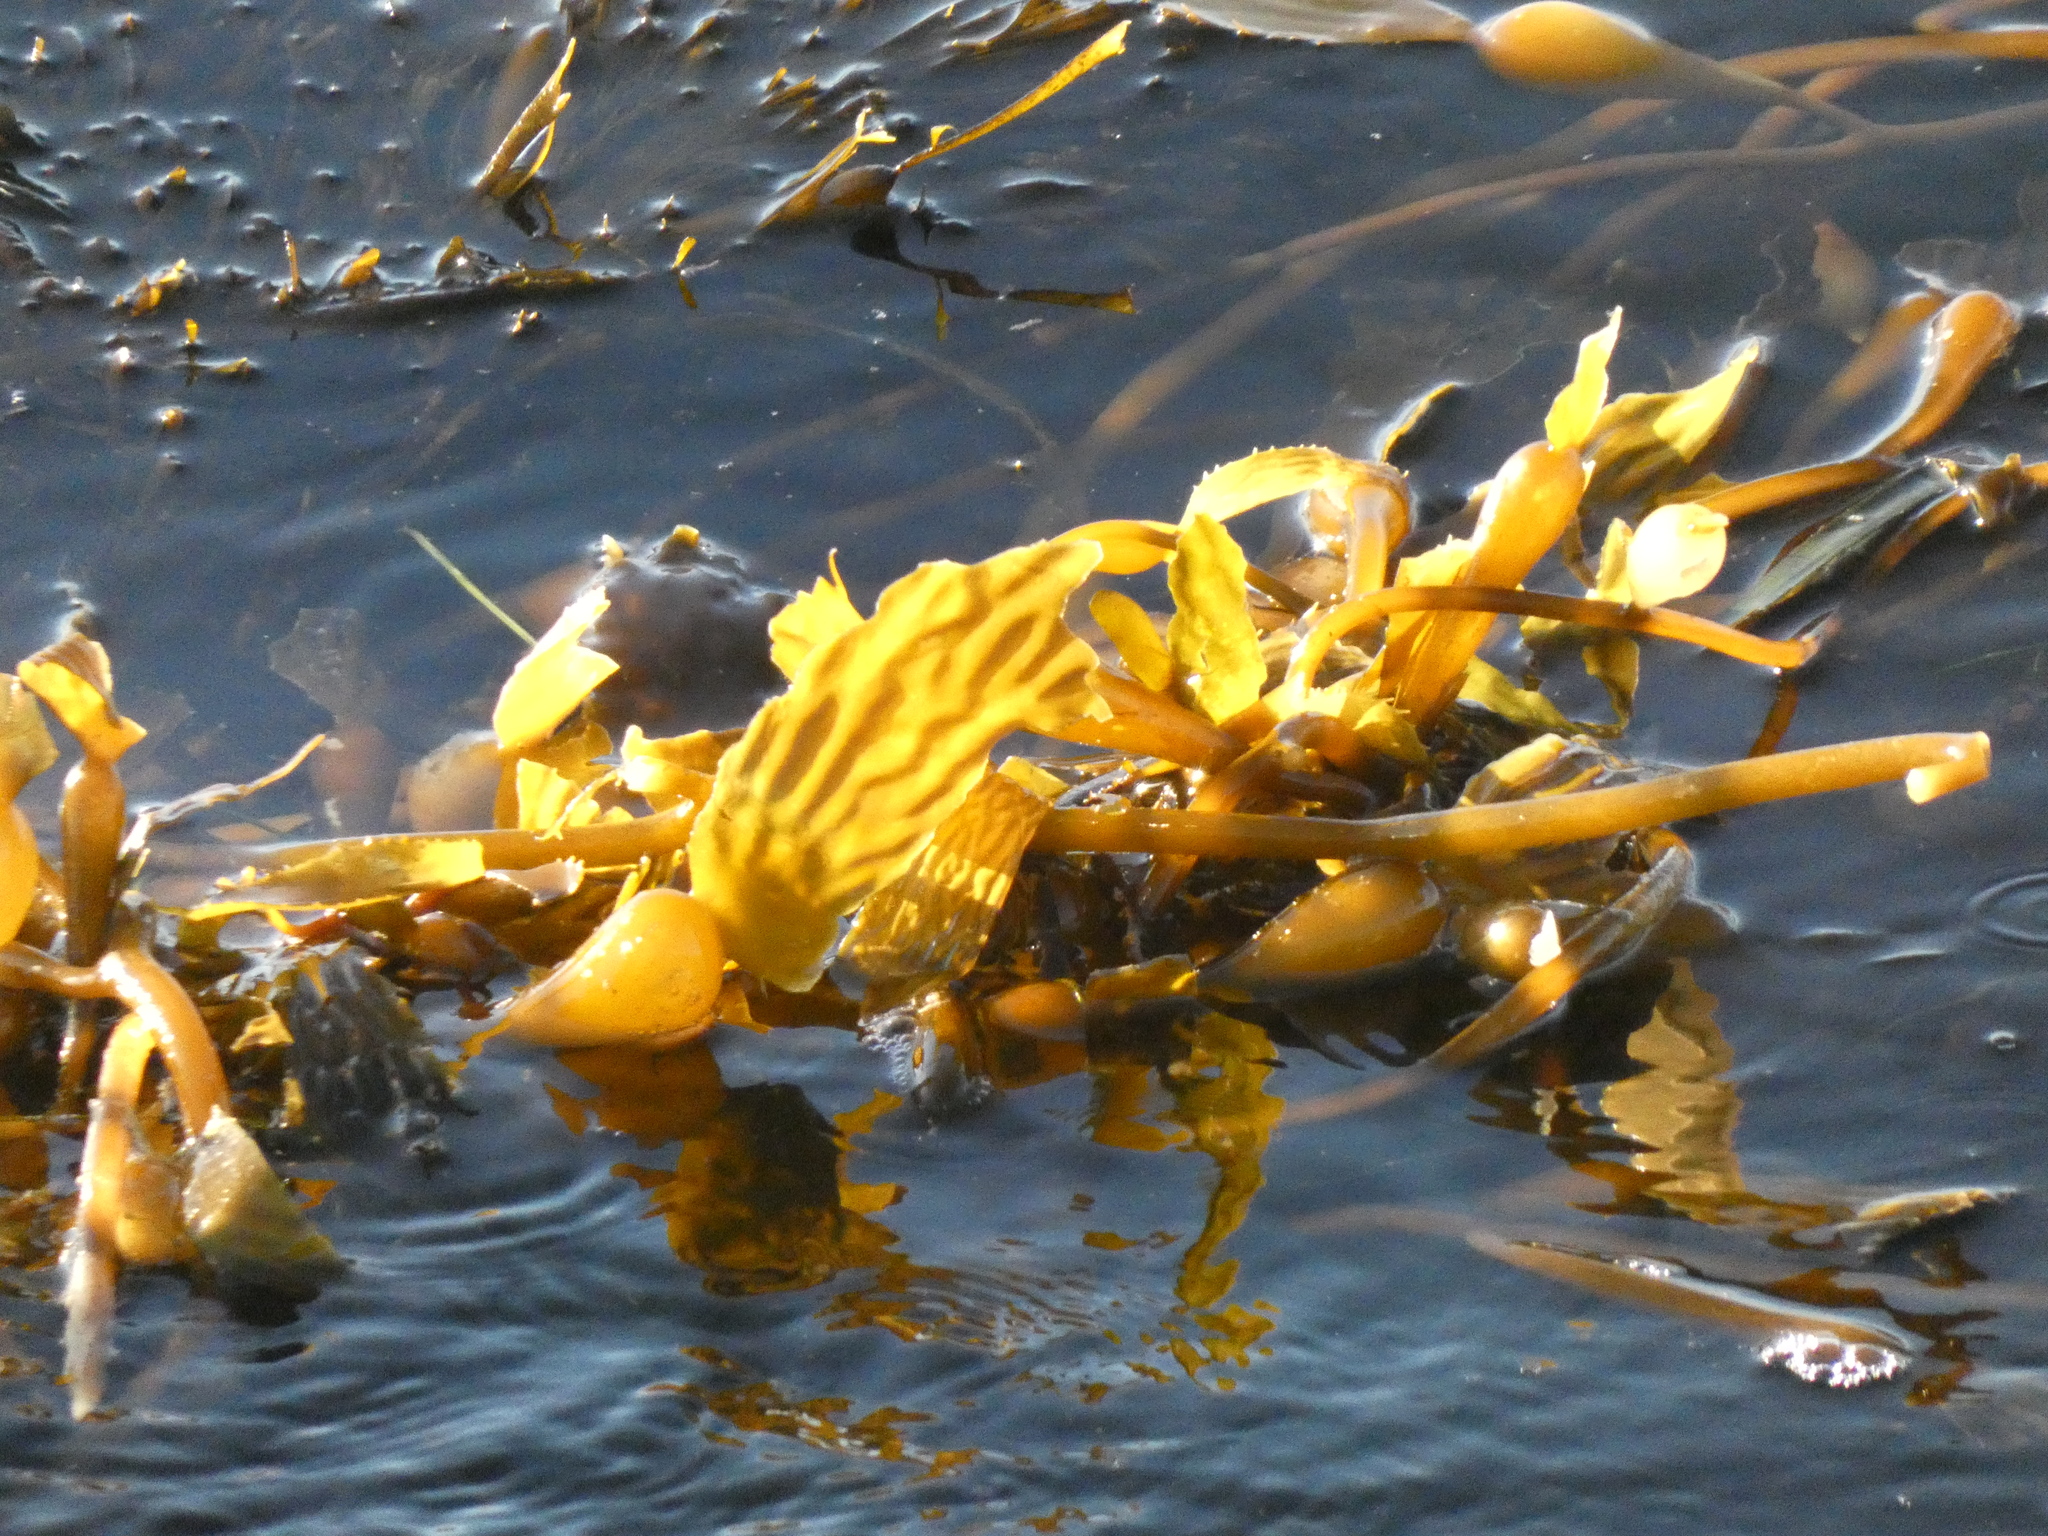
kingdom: Chromista
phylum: Ochrophyta
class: Phaeophyceae
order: Laminariales
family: Laminariaceae
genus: Macrocystis
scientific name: Macrocystis pyrifera
